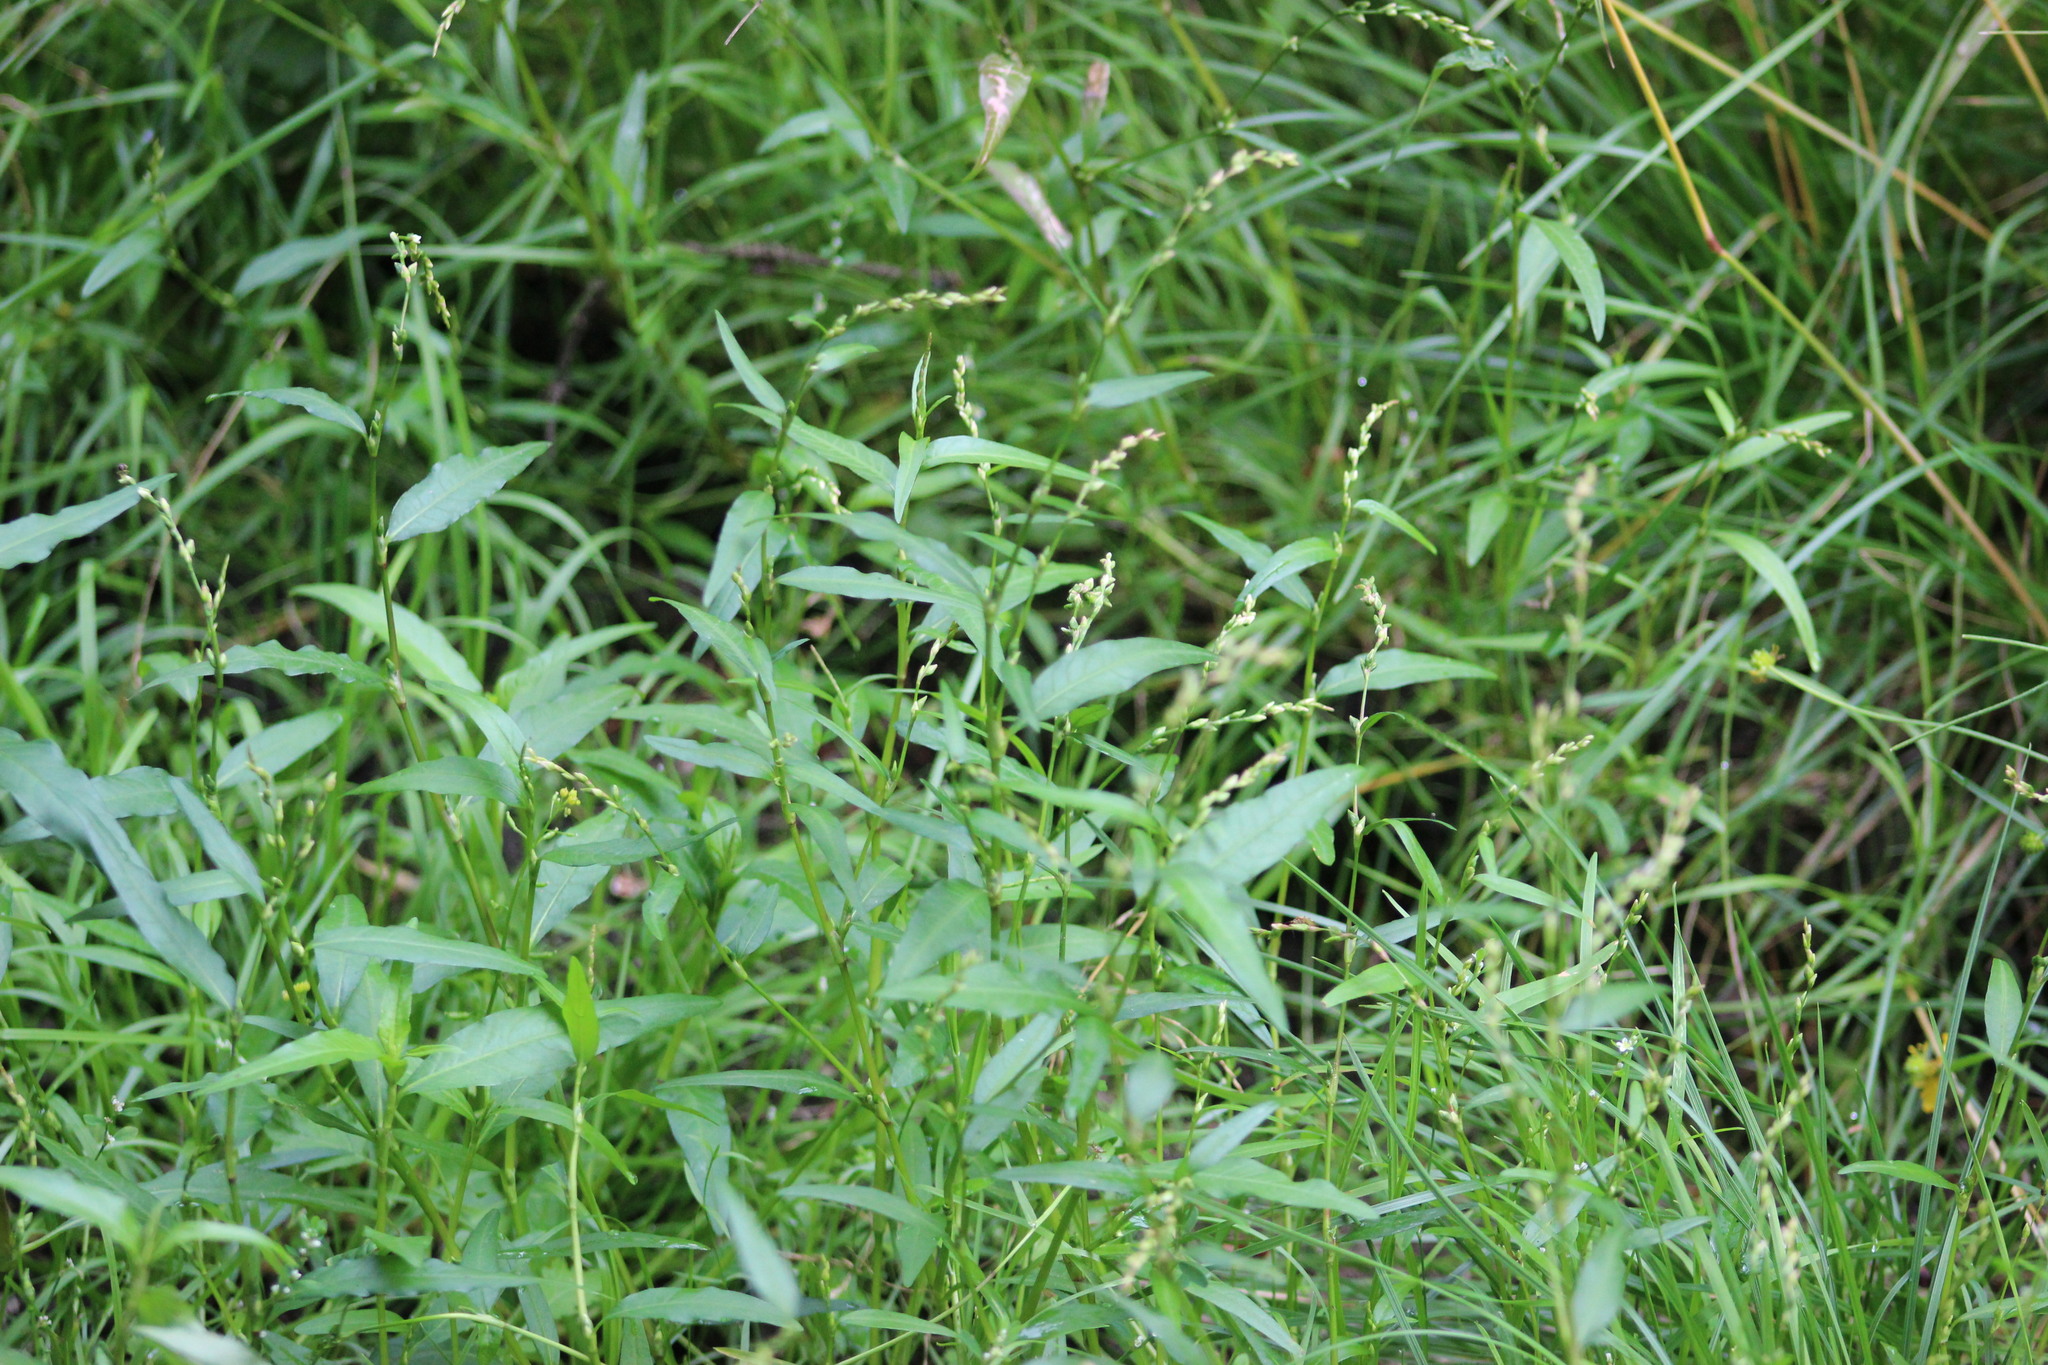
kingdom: Plantae
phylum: Tracheophyta
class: Magnoliopsida
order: Caryophyllales
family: Polygonaceae
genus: Persicaria
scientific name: Persicaria hydropiper
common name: Water-pepper
